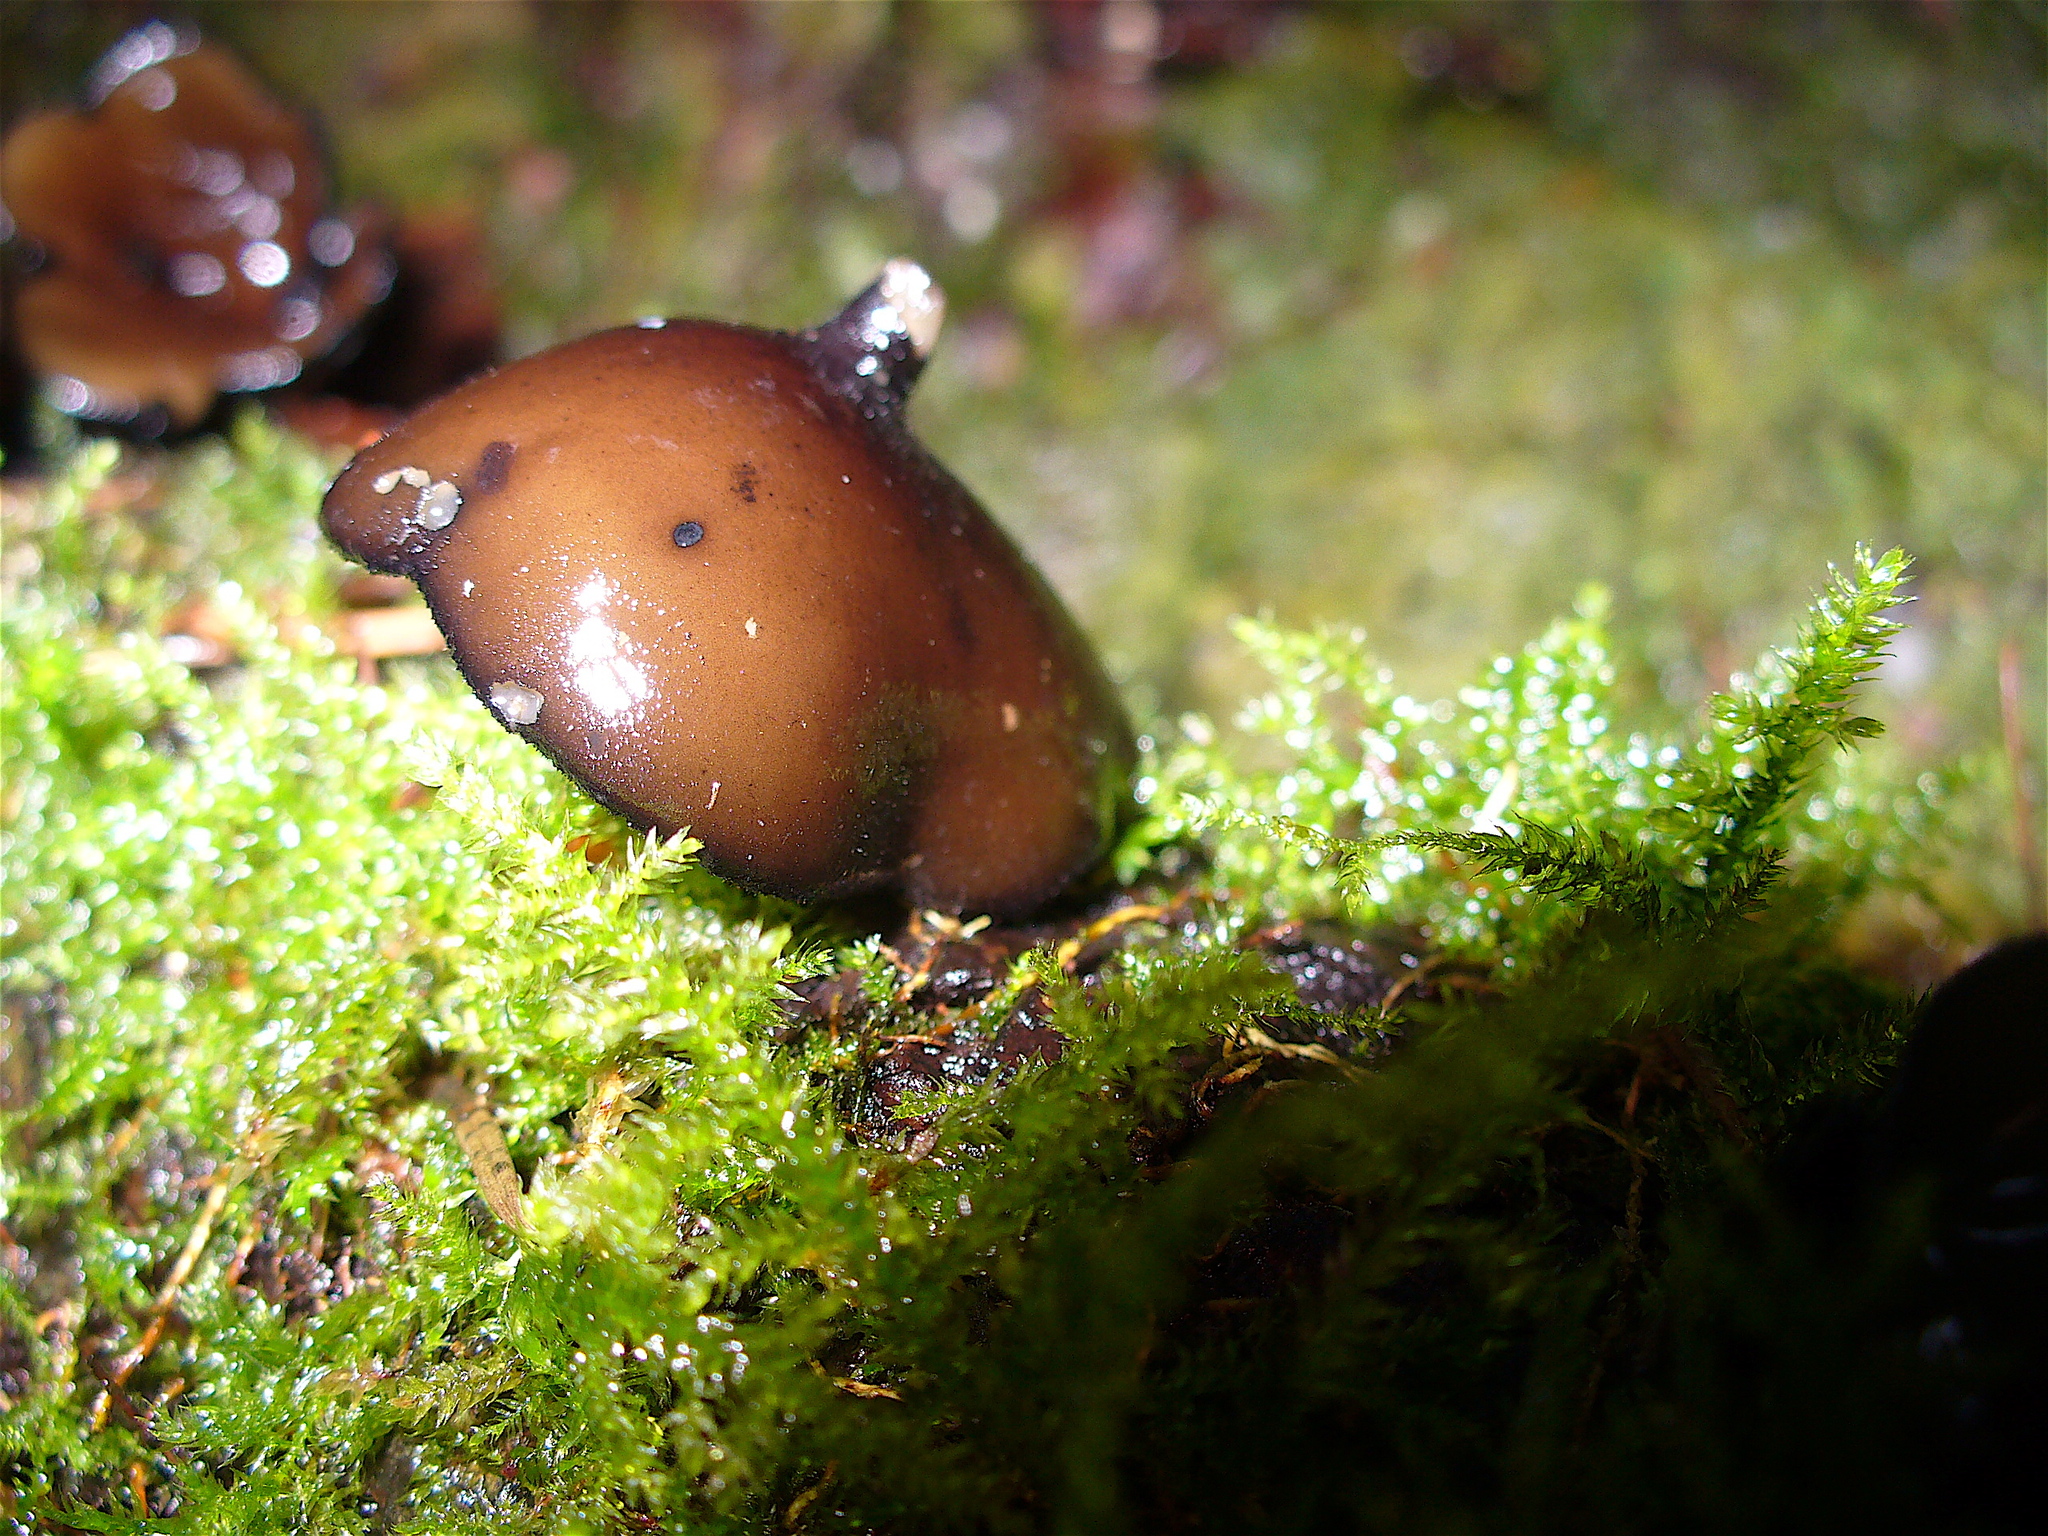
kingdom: Fungi
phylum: Ascomycota
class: Pezizomycetes
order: Pezizales
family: Sarcosomataceae
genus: Pseudoplectania
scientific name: Pseudoplectania melaena
